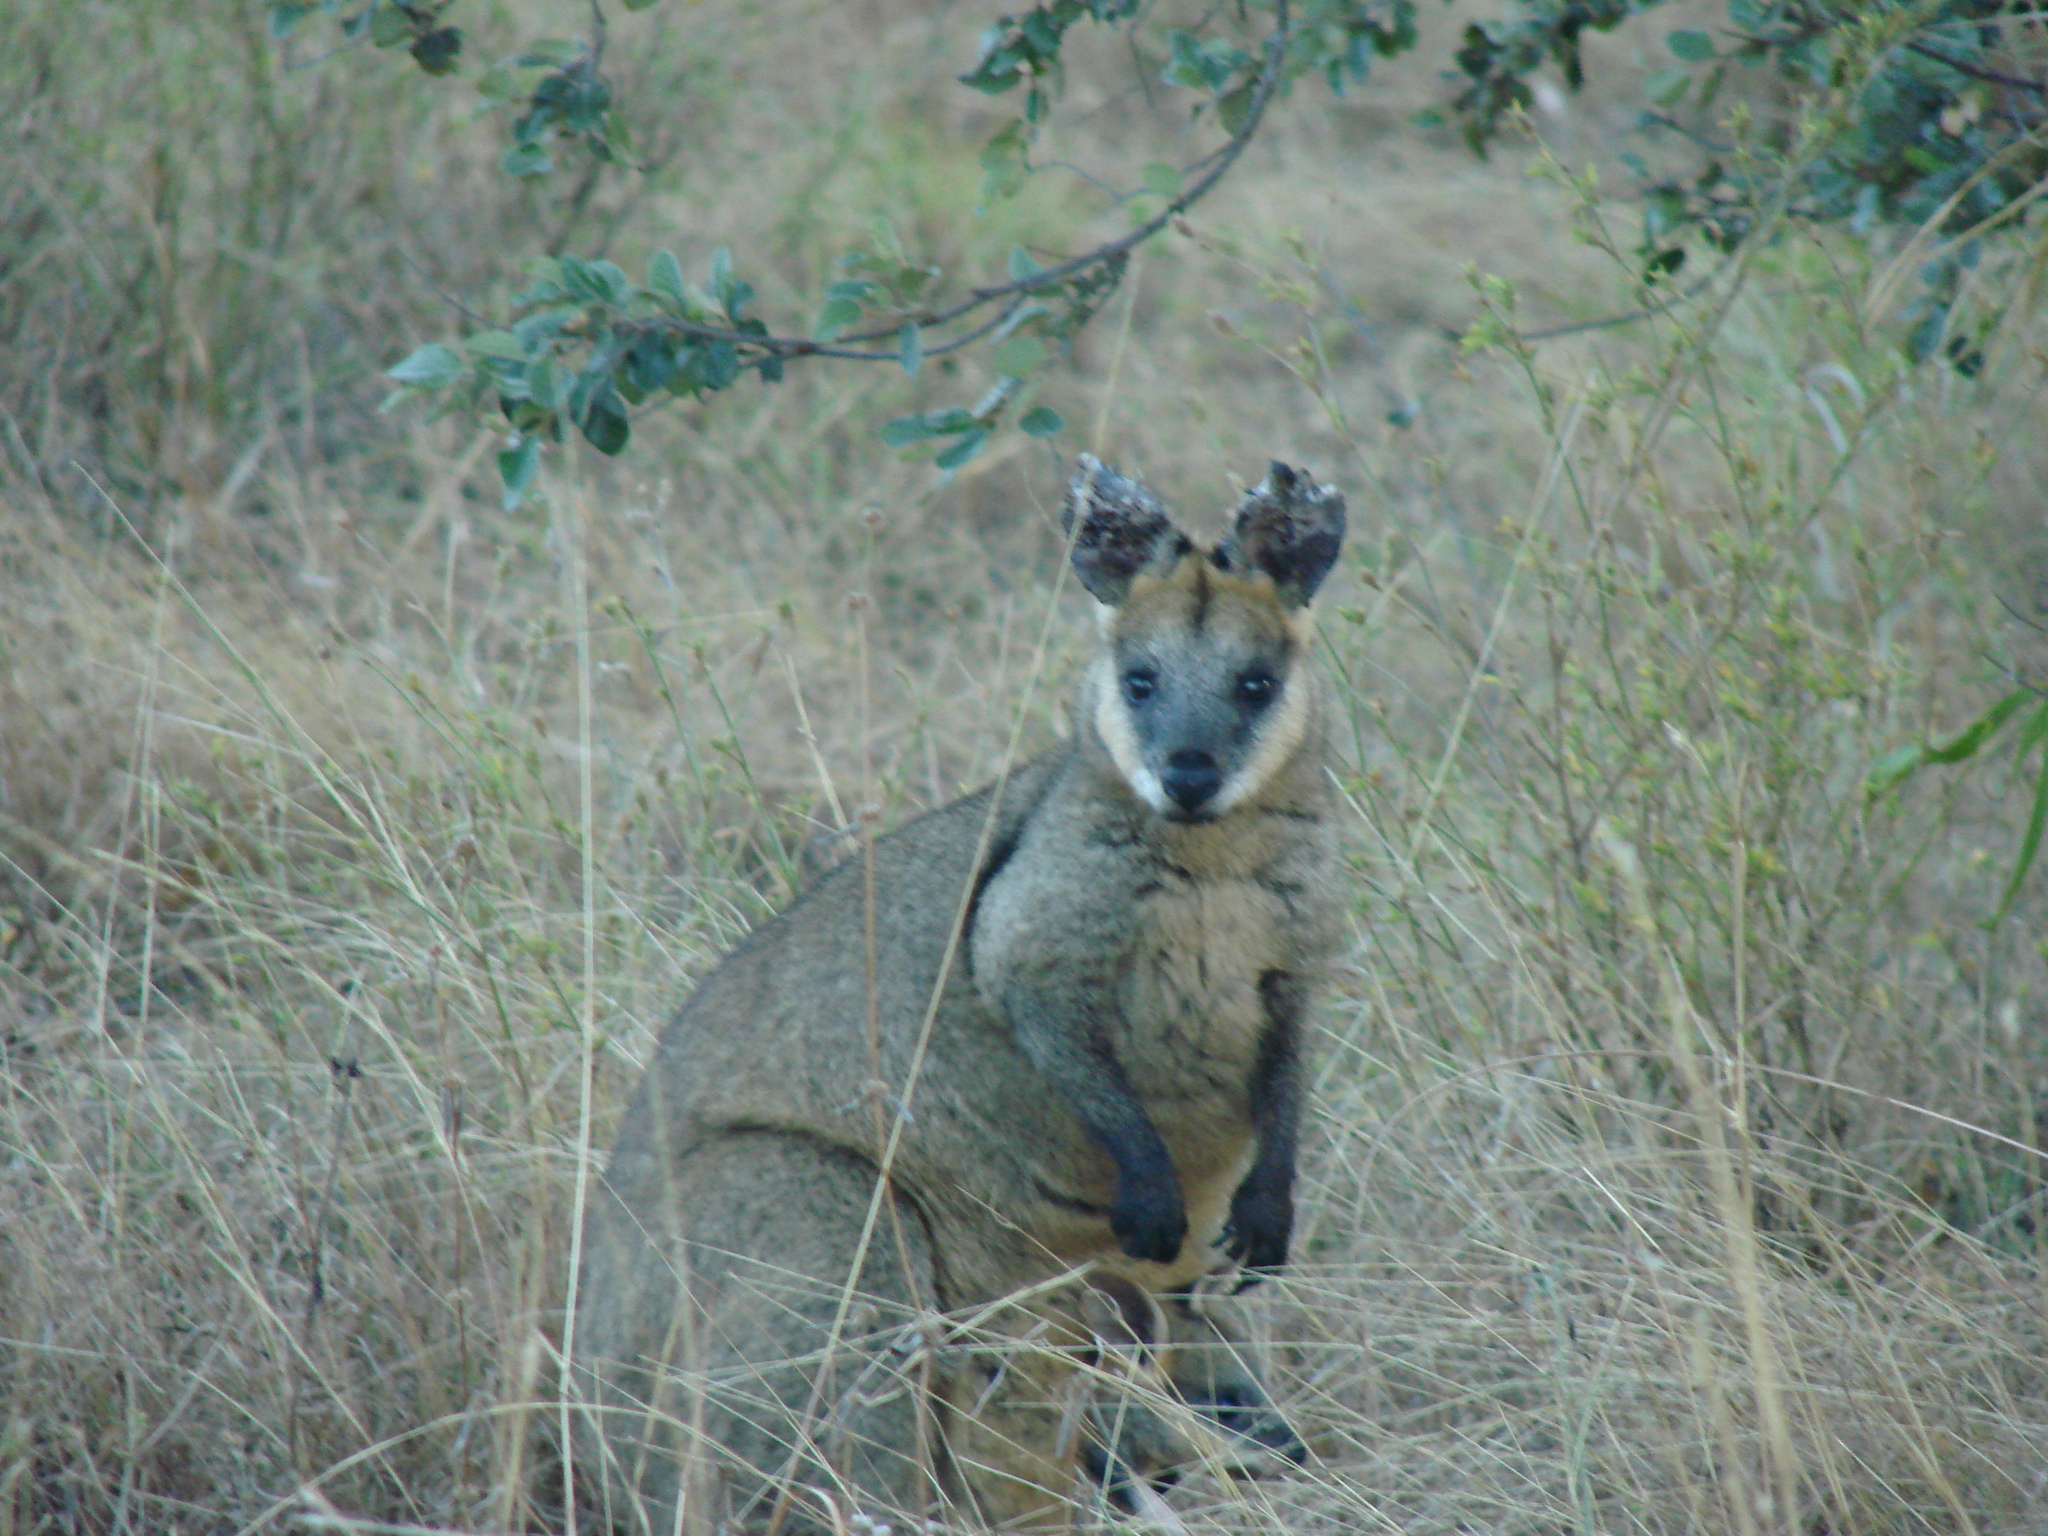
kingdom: Animalia
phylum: Chordata
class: Mammalia
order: Diprotodontia
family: Macropodidae
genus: Wallabia
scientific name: Wallabia bicolor
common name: Swamp wallaby
